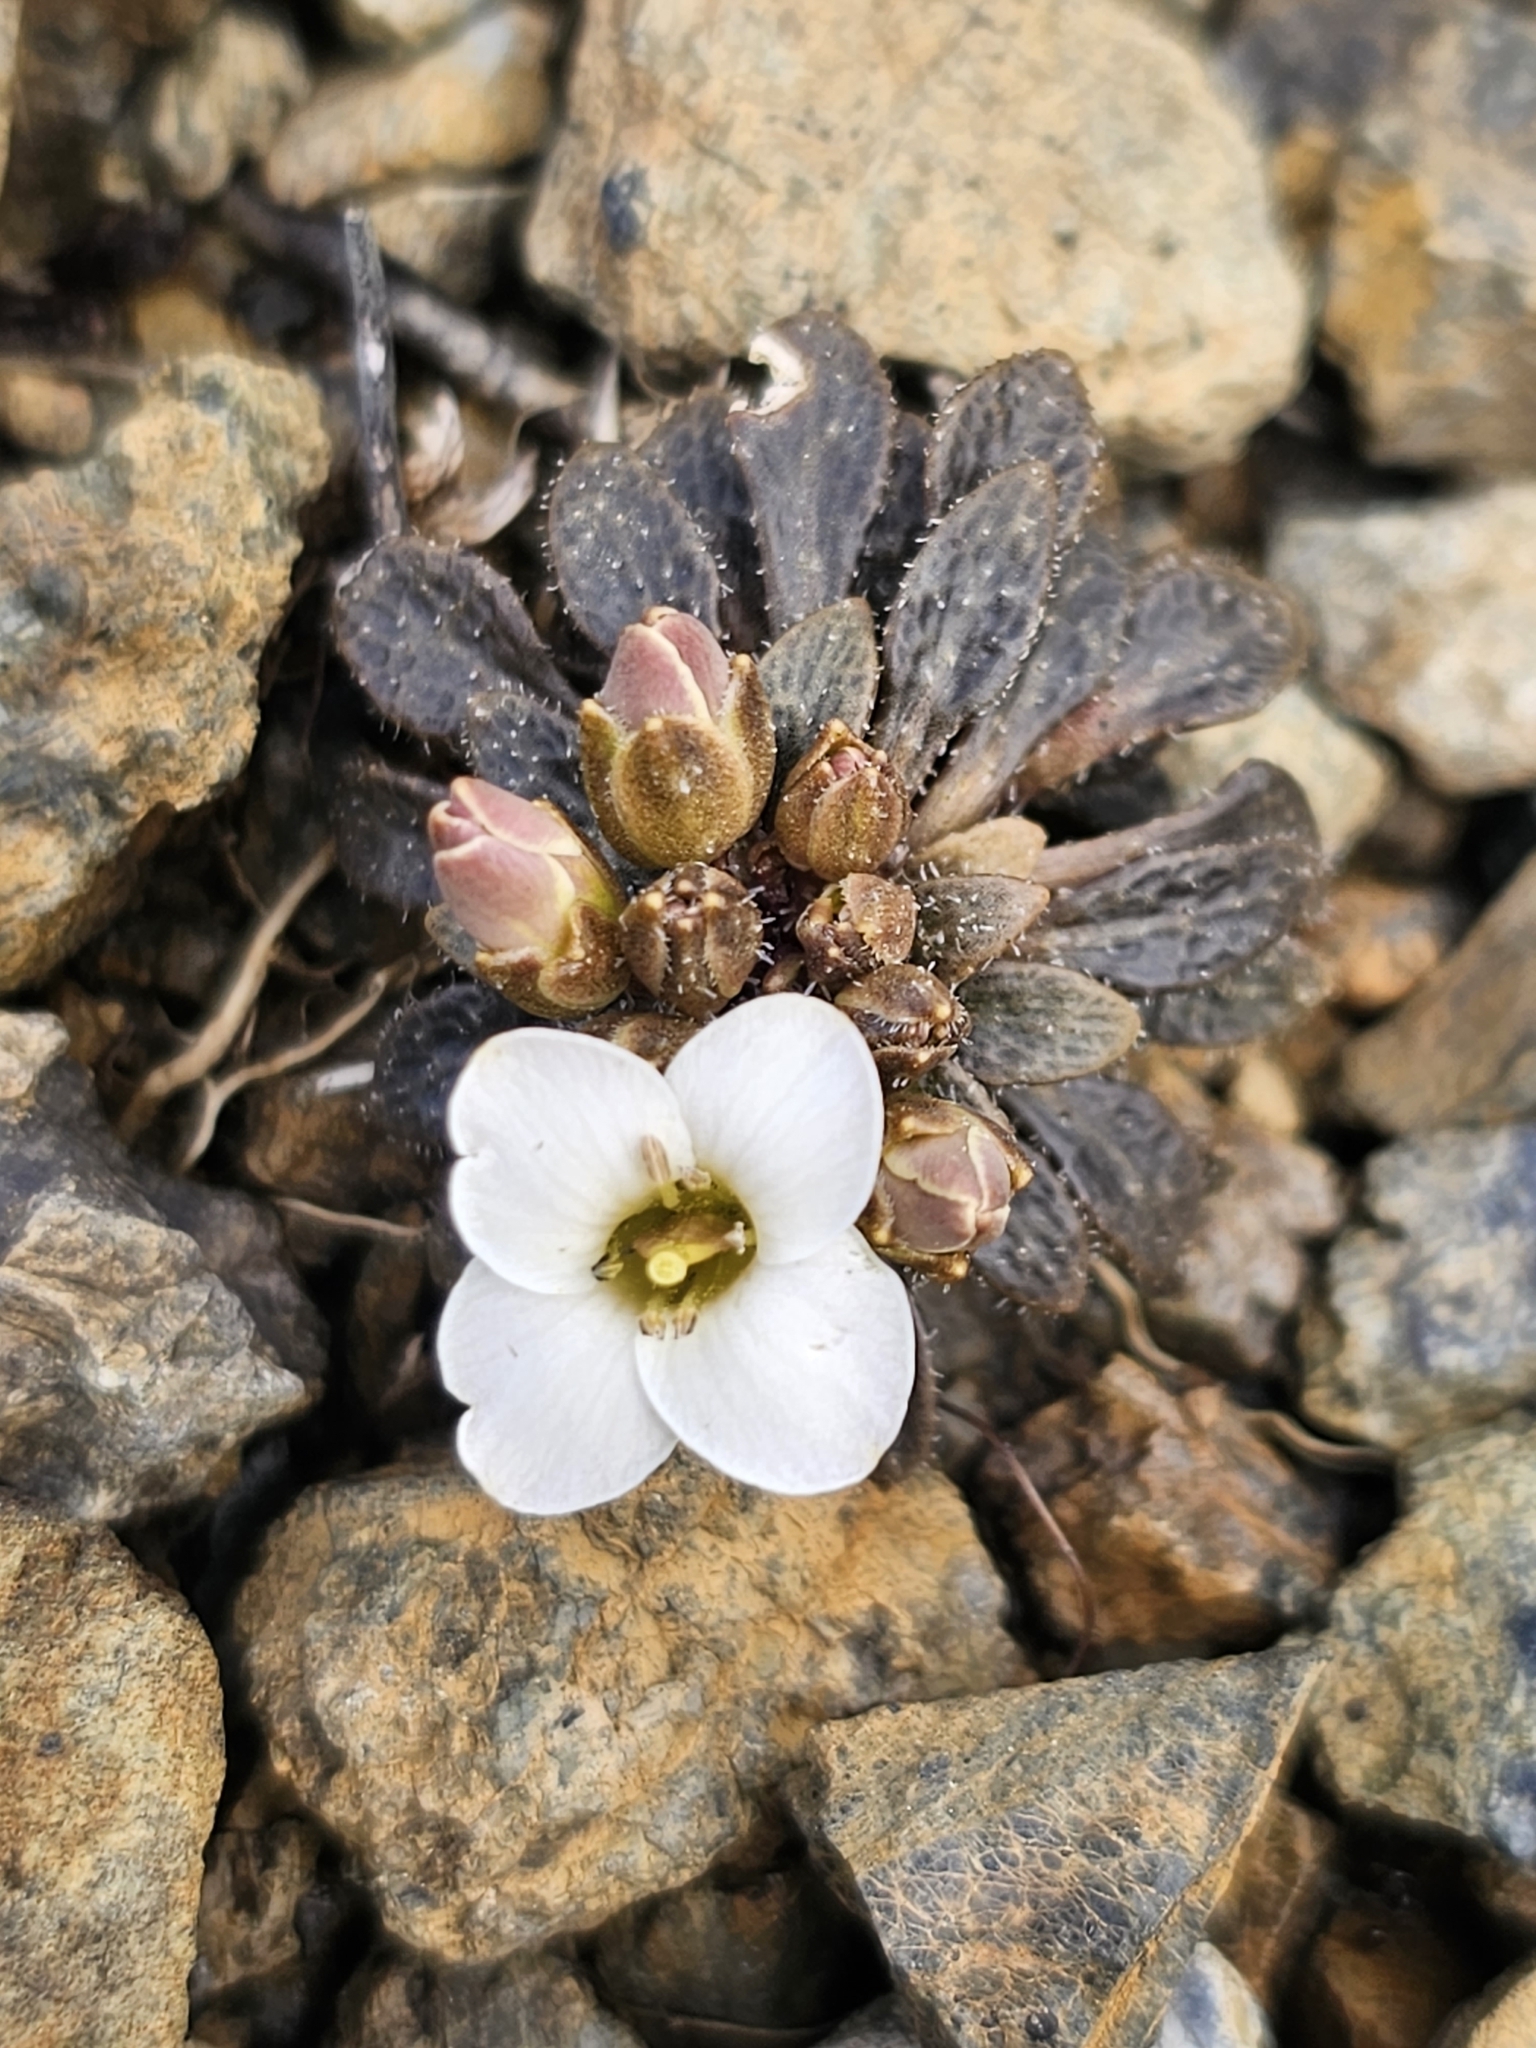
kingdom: Plantae
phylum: Tracheophyta
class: Magnoliopsida
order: Brassicales
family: Brassicaceae
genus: Notothlaspi
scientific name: Notothlaspi australe
